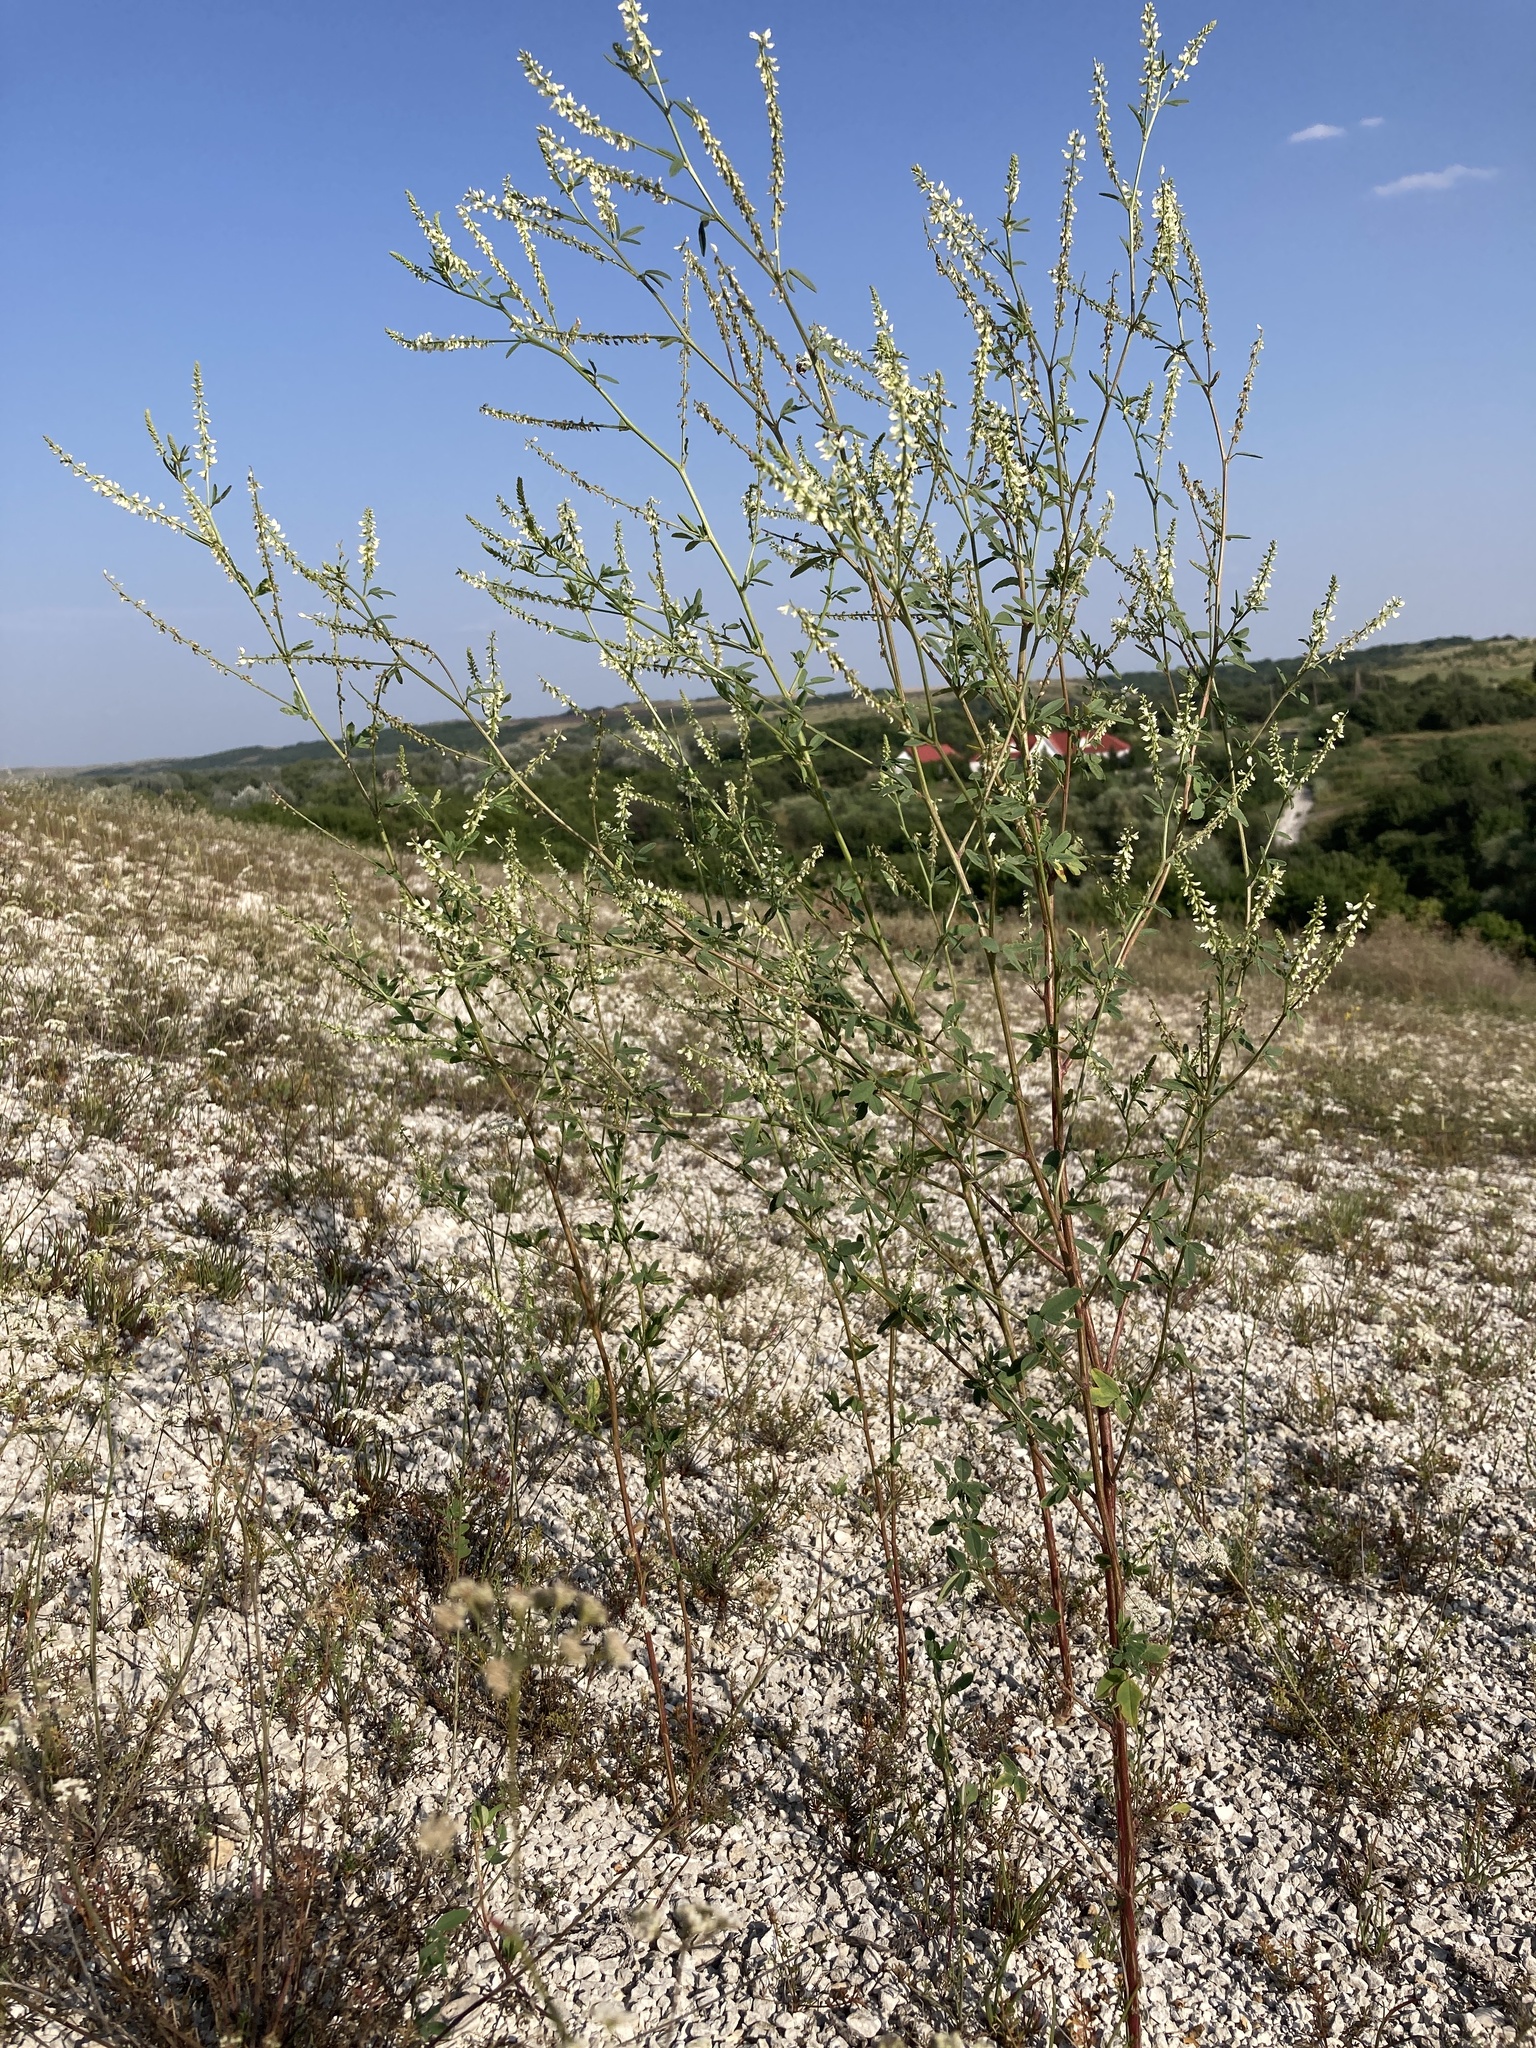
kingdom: Plantae
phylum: Tracheophyta
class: Magnoliopsida
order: Fabales
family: Fabaceae
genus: Melilotus
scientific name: Melilotus albus
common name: White melilot
